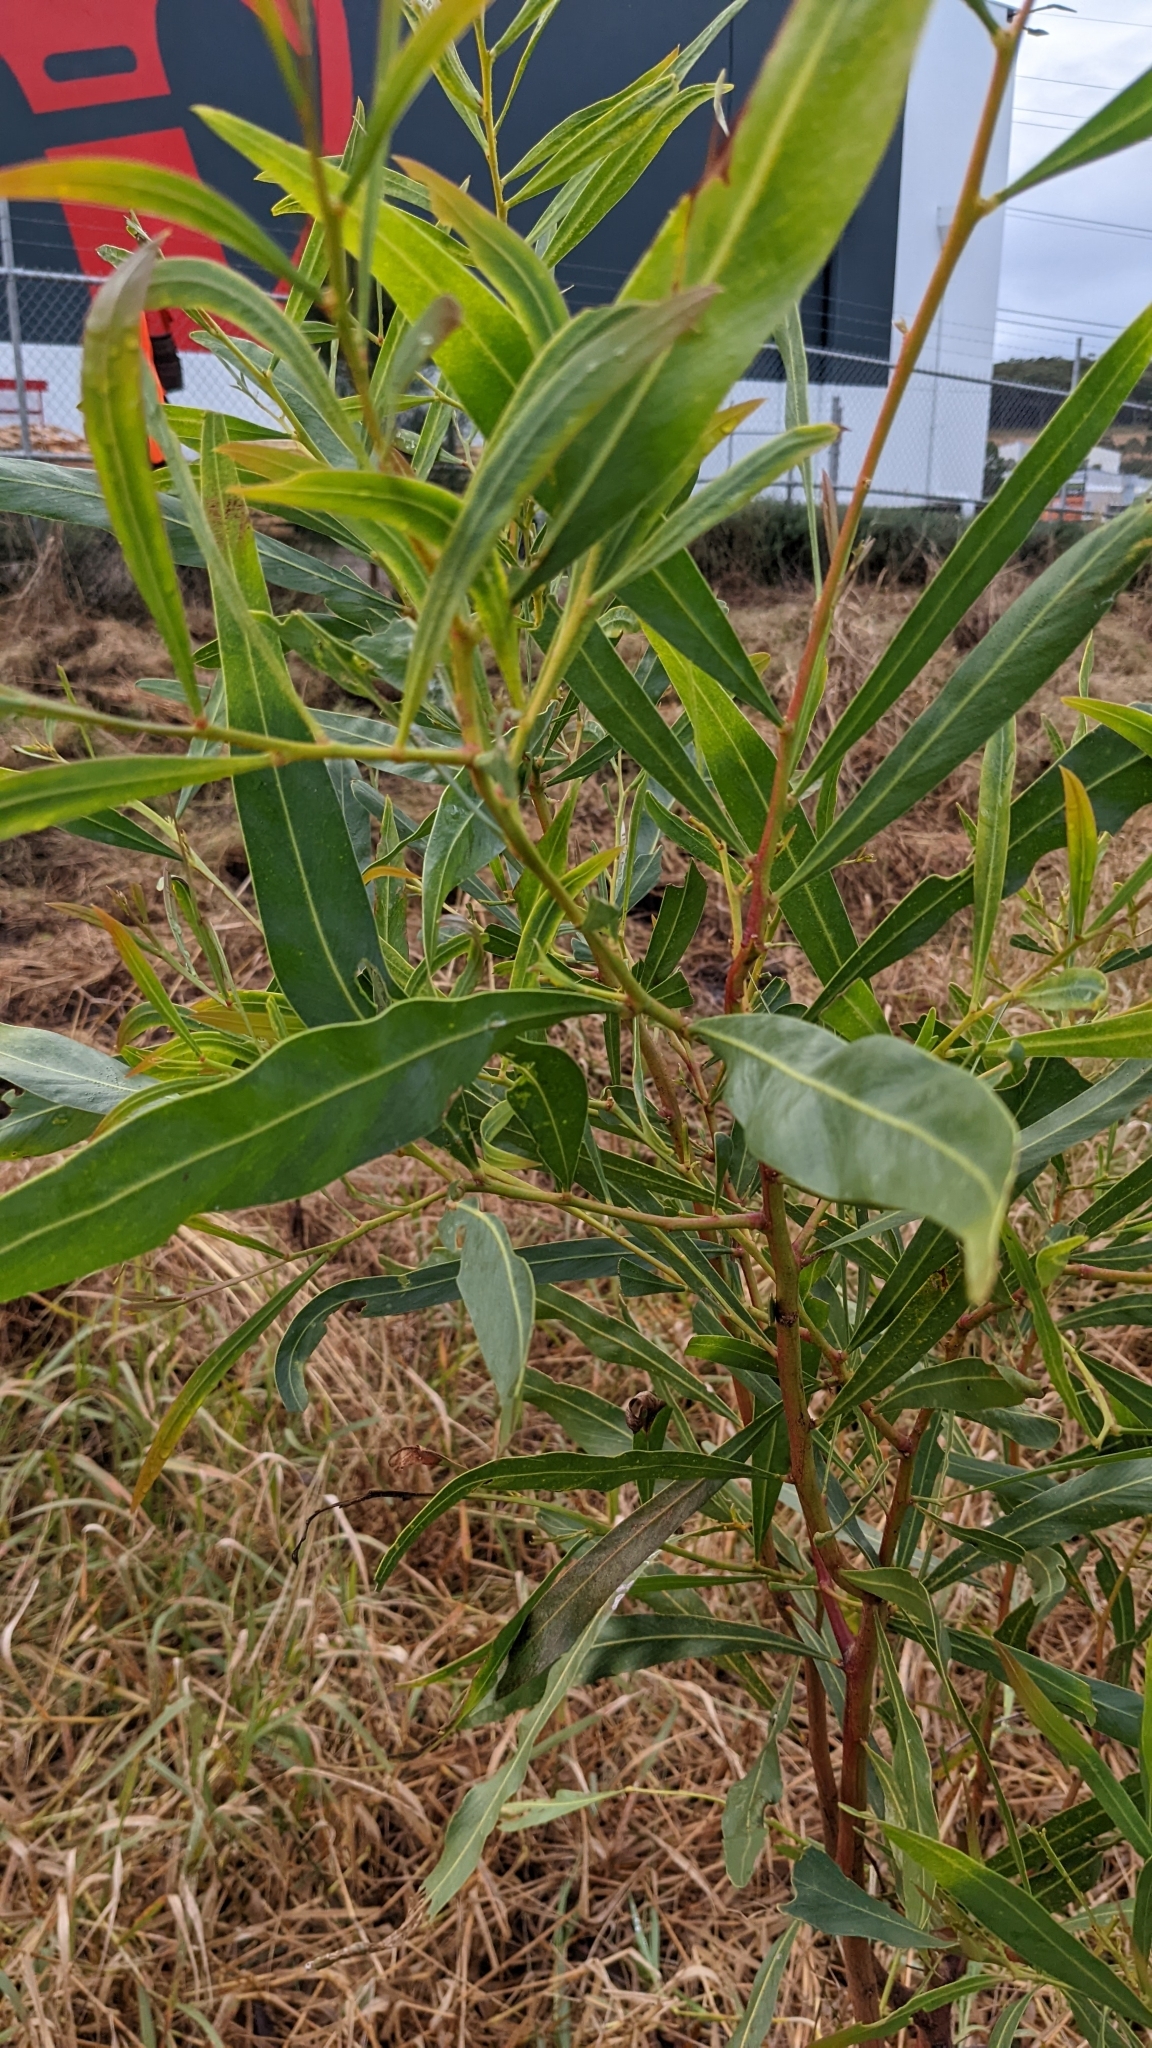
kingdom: Plantae
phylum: Tracheophyta
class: Magnoliopsida
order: Fabales
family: Fabaceae
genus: Acacia
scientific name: Acacia saligna
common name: Orange wattle
